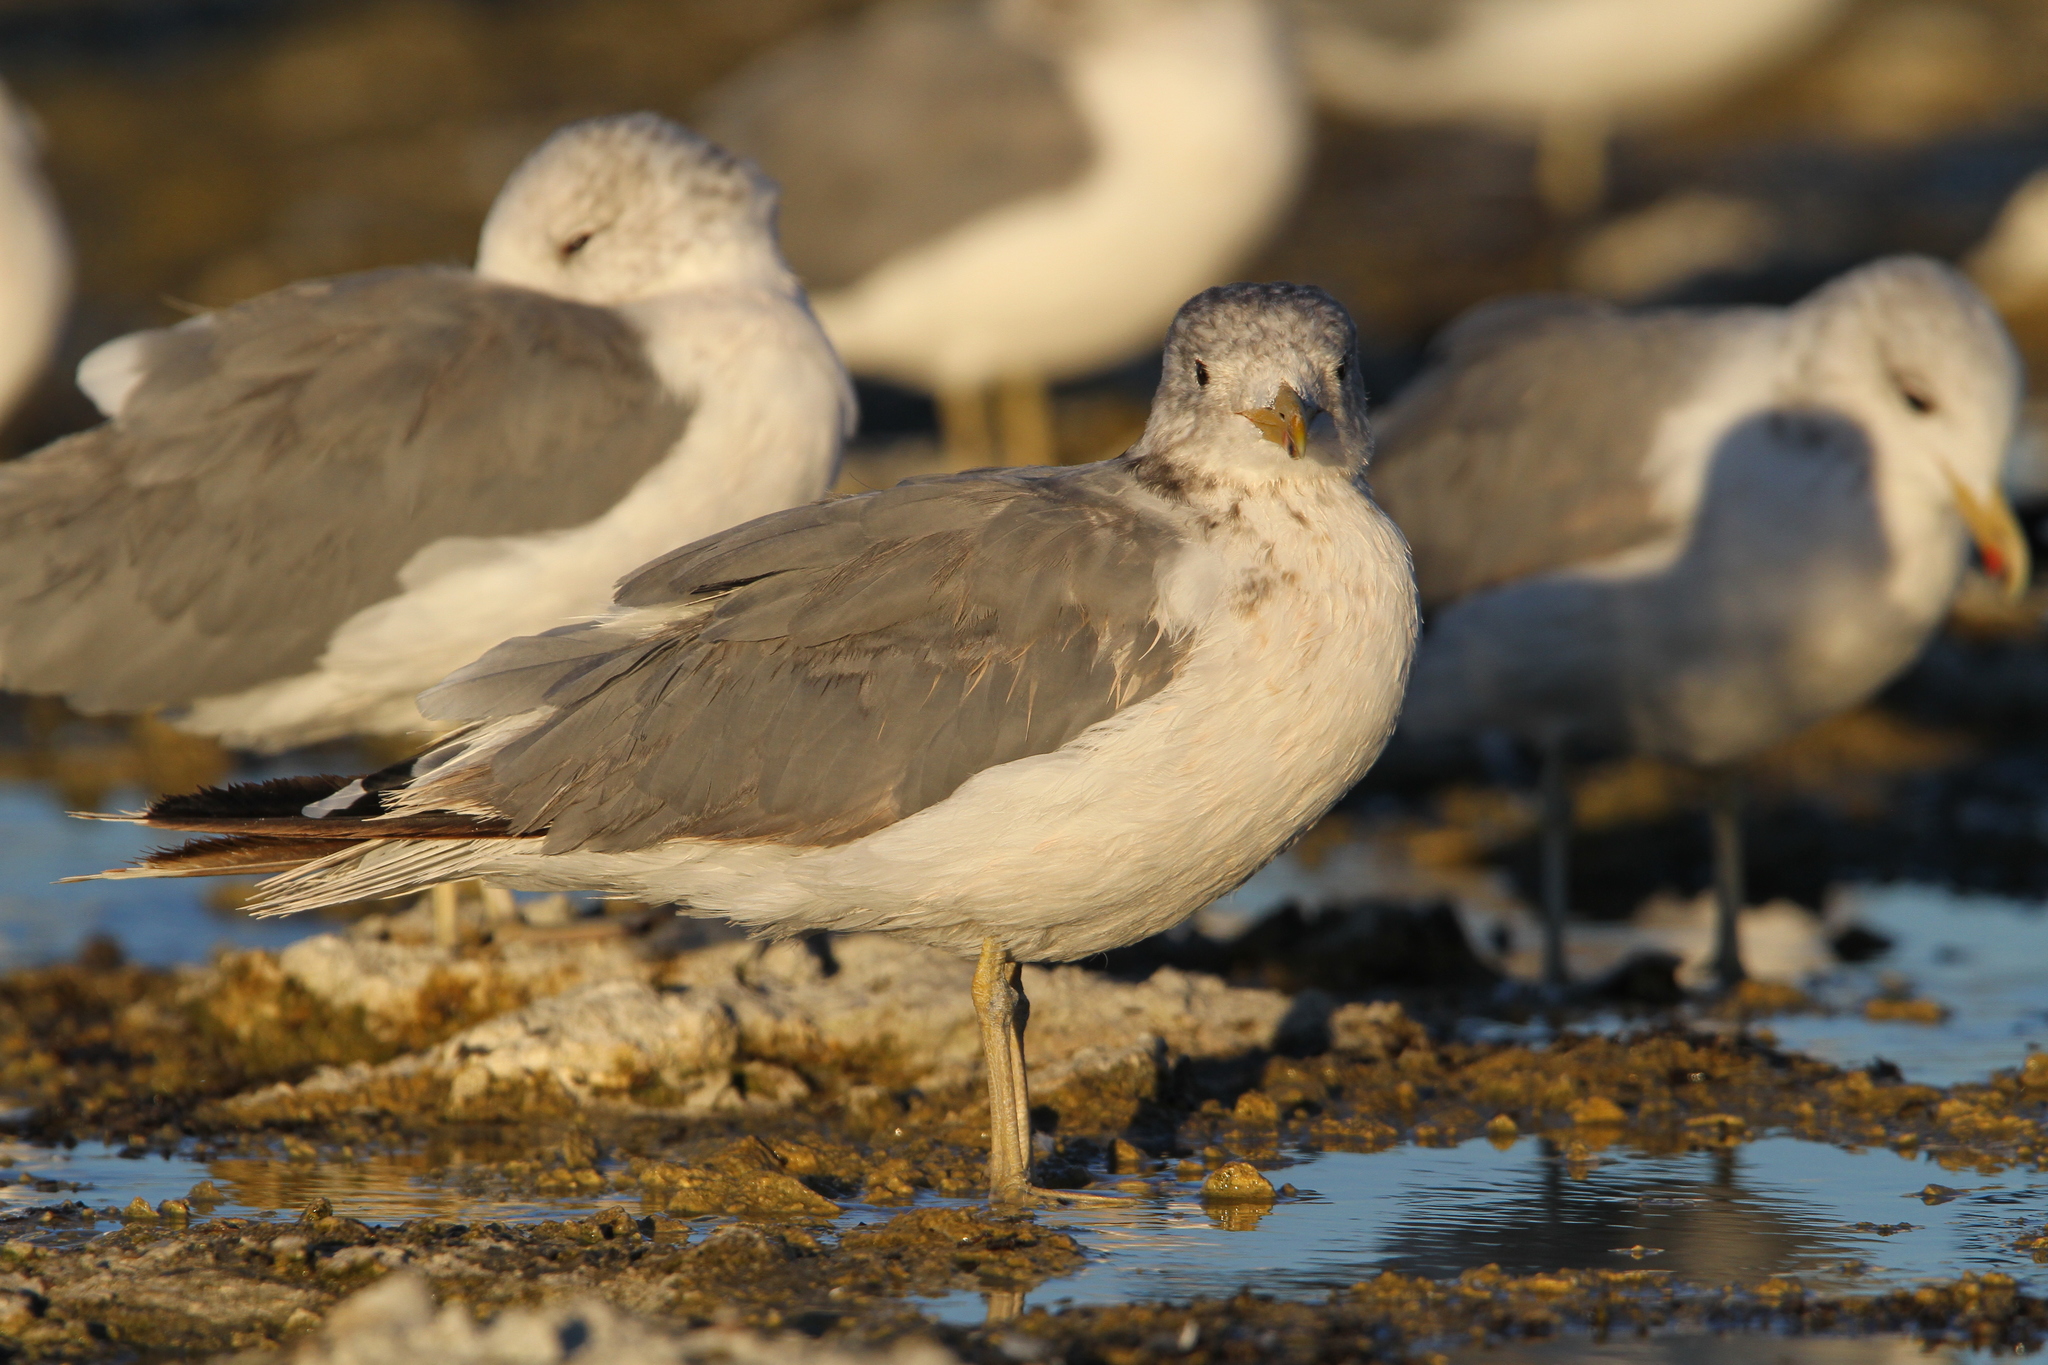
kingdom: Animalia
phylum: Chordata
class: Aves
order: Charadriiformes
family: Laridae
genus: Larus
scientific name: Larus californicus
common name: California gull
